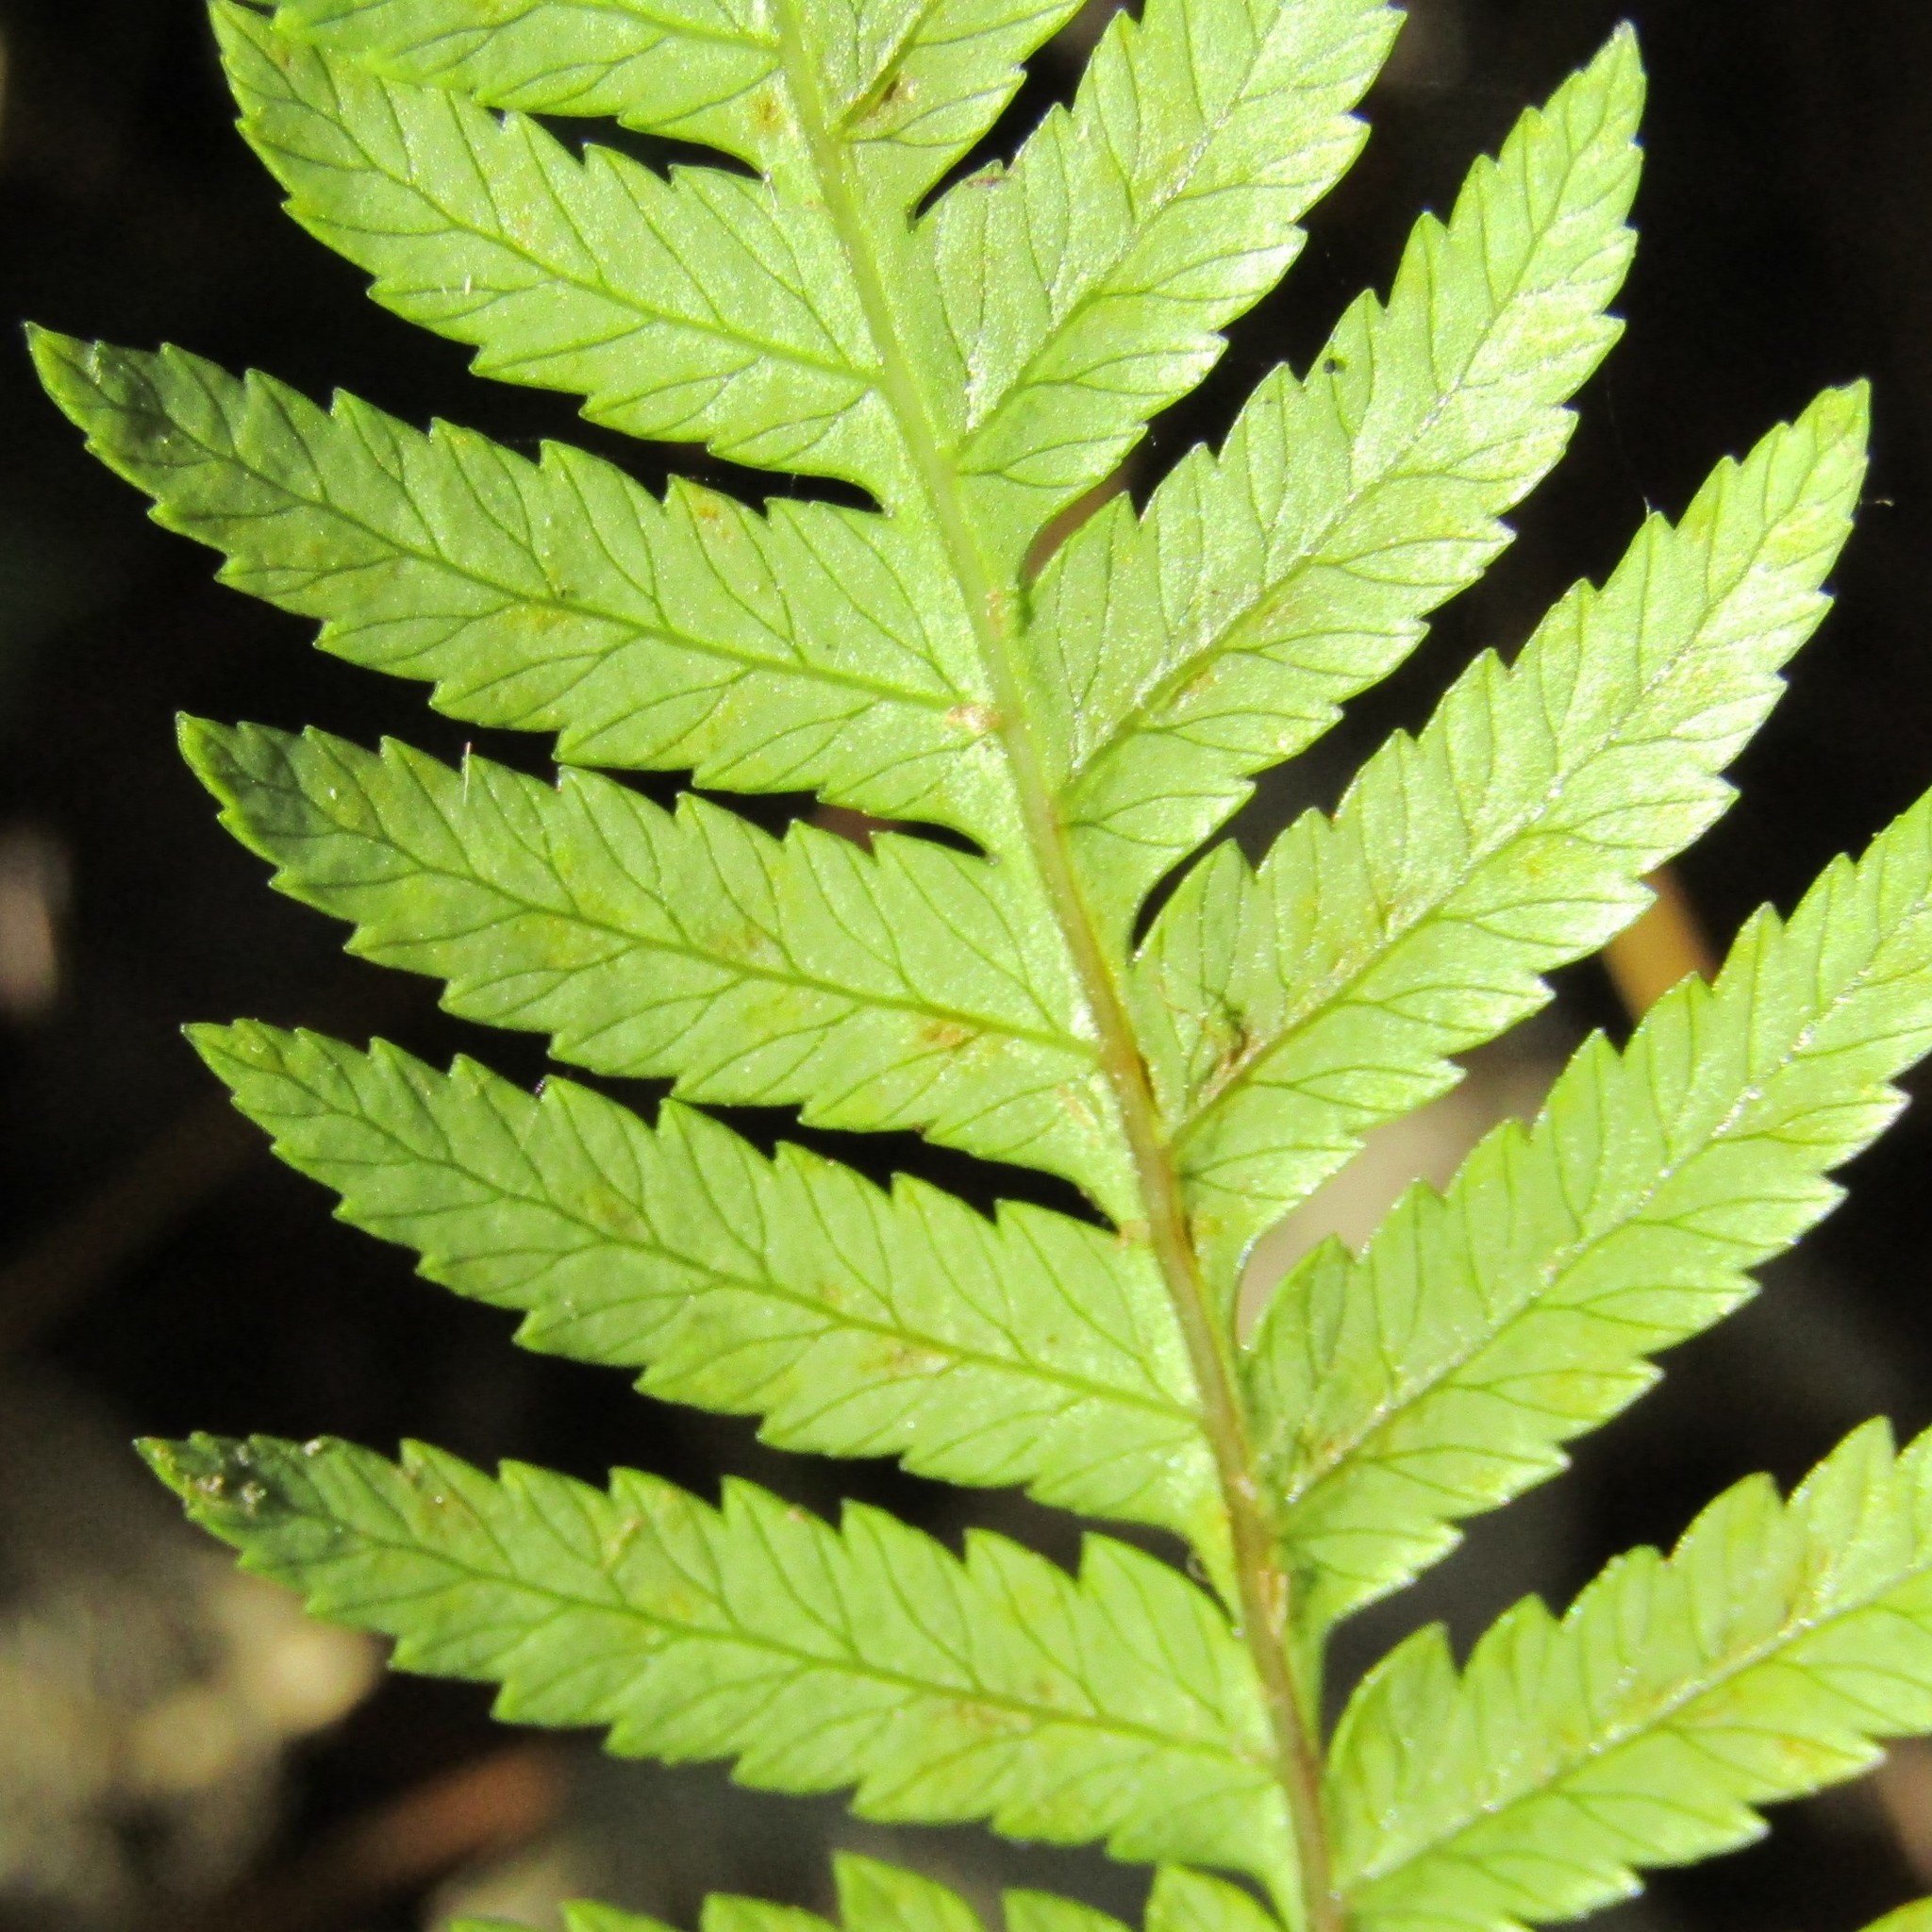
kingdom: Plantae
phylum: Tracheophyta
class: Polypodiopsida
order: Cyatheales
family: Cyatheaceae
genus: Alsophila
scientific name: Alsophila dealbata
